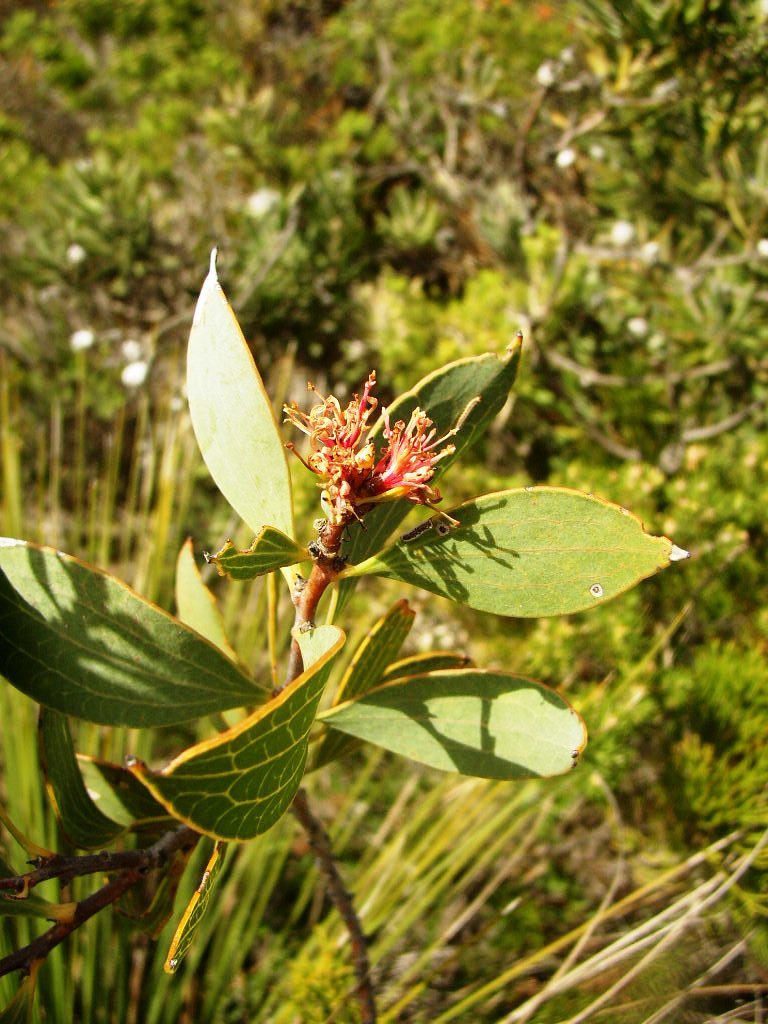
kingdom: Plantae
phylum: Tracheophyta
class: Magnoliopsida
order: Proteales
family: Proteaceae
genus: Hakea
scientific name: Hakea neurophylla
